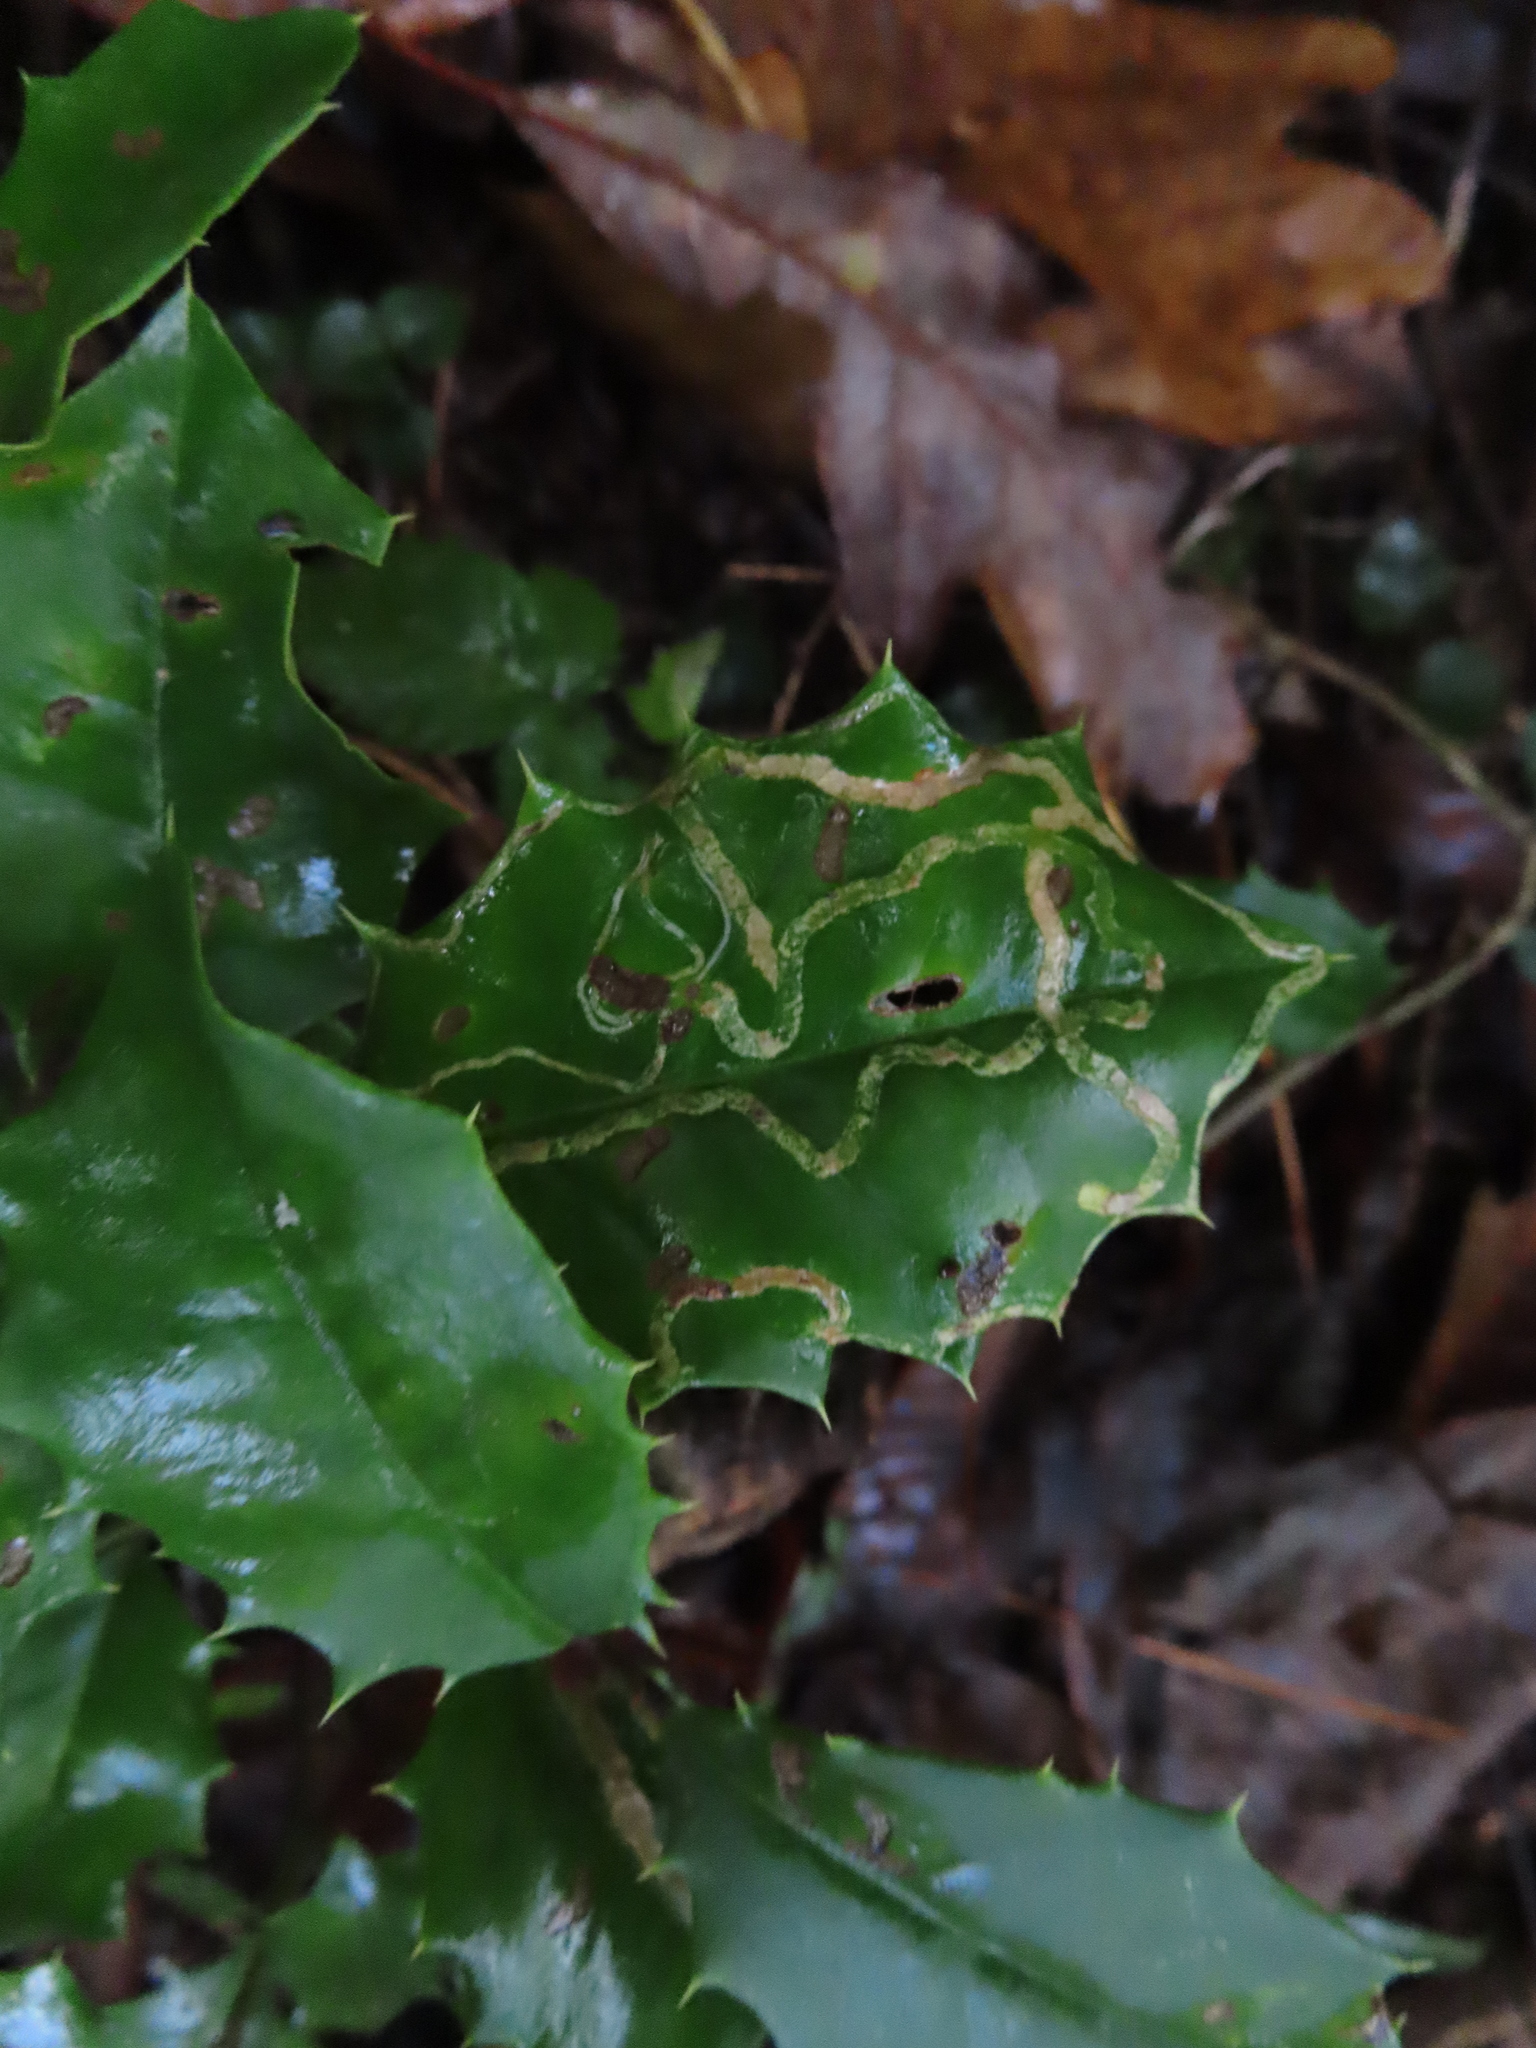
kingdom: Animalia
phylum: Arthropoda
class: Insecta
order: Diptera
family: Agromyzidae
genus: Phytomyza
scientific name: Phytomyza opacae
